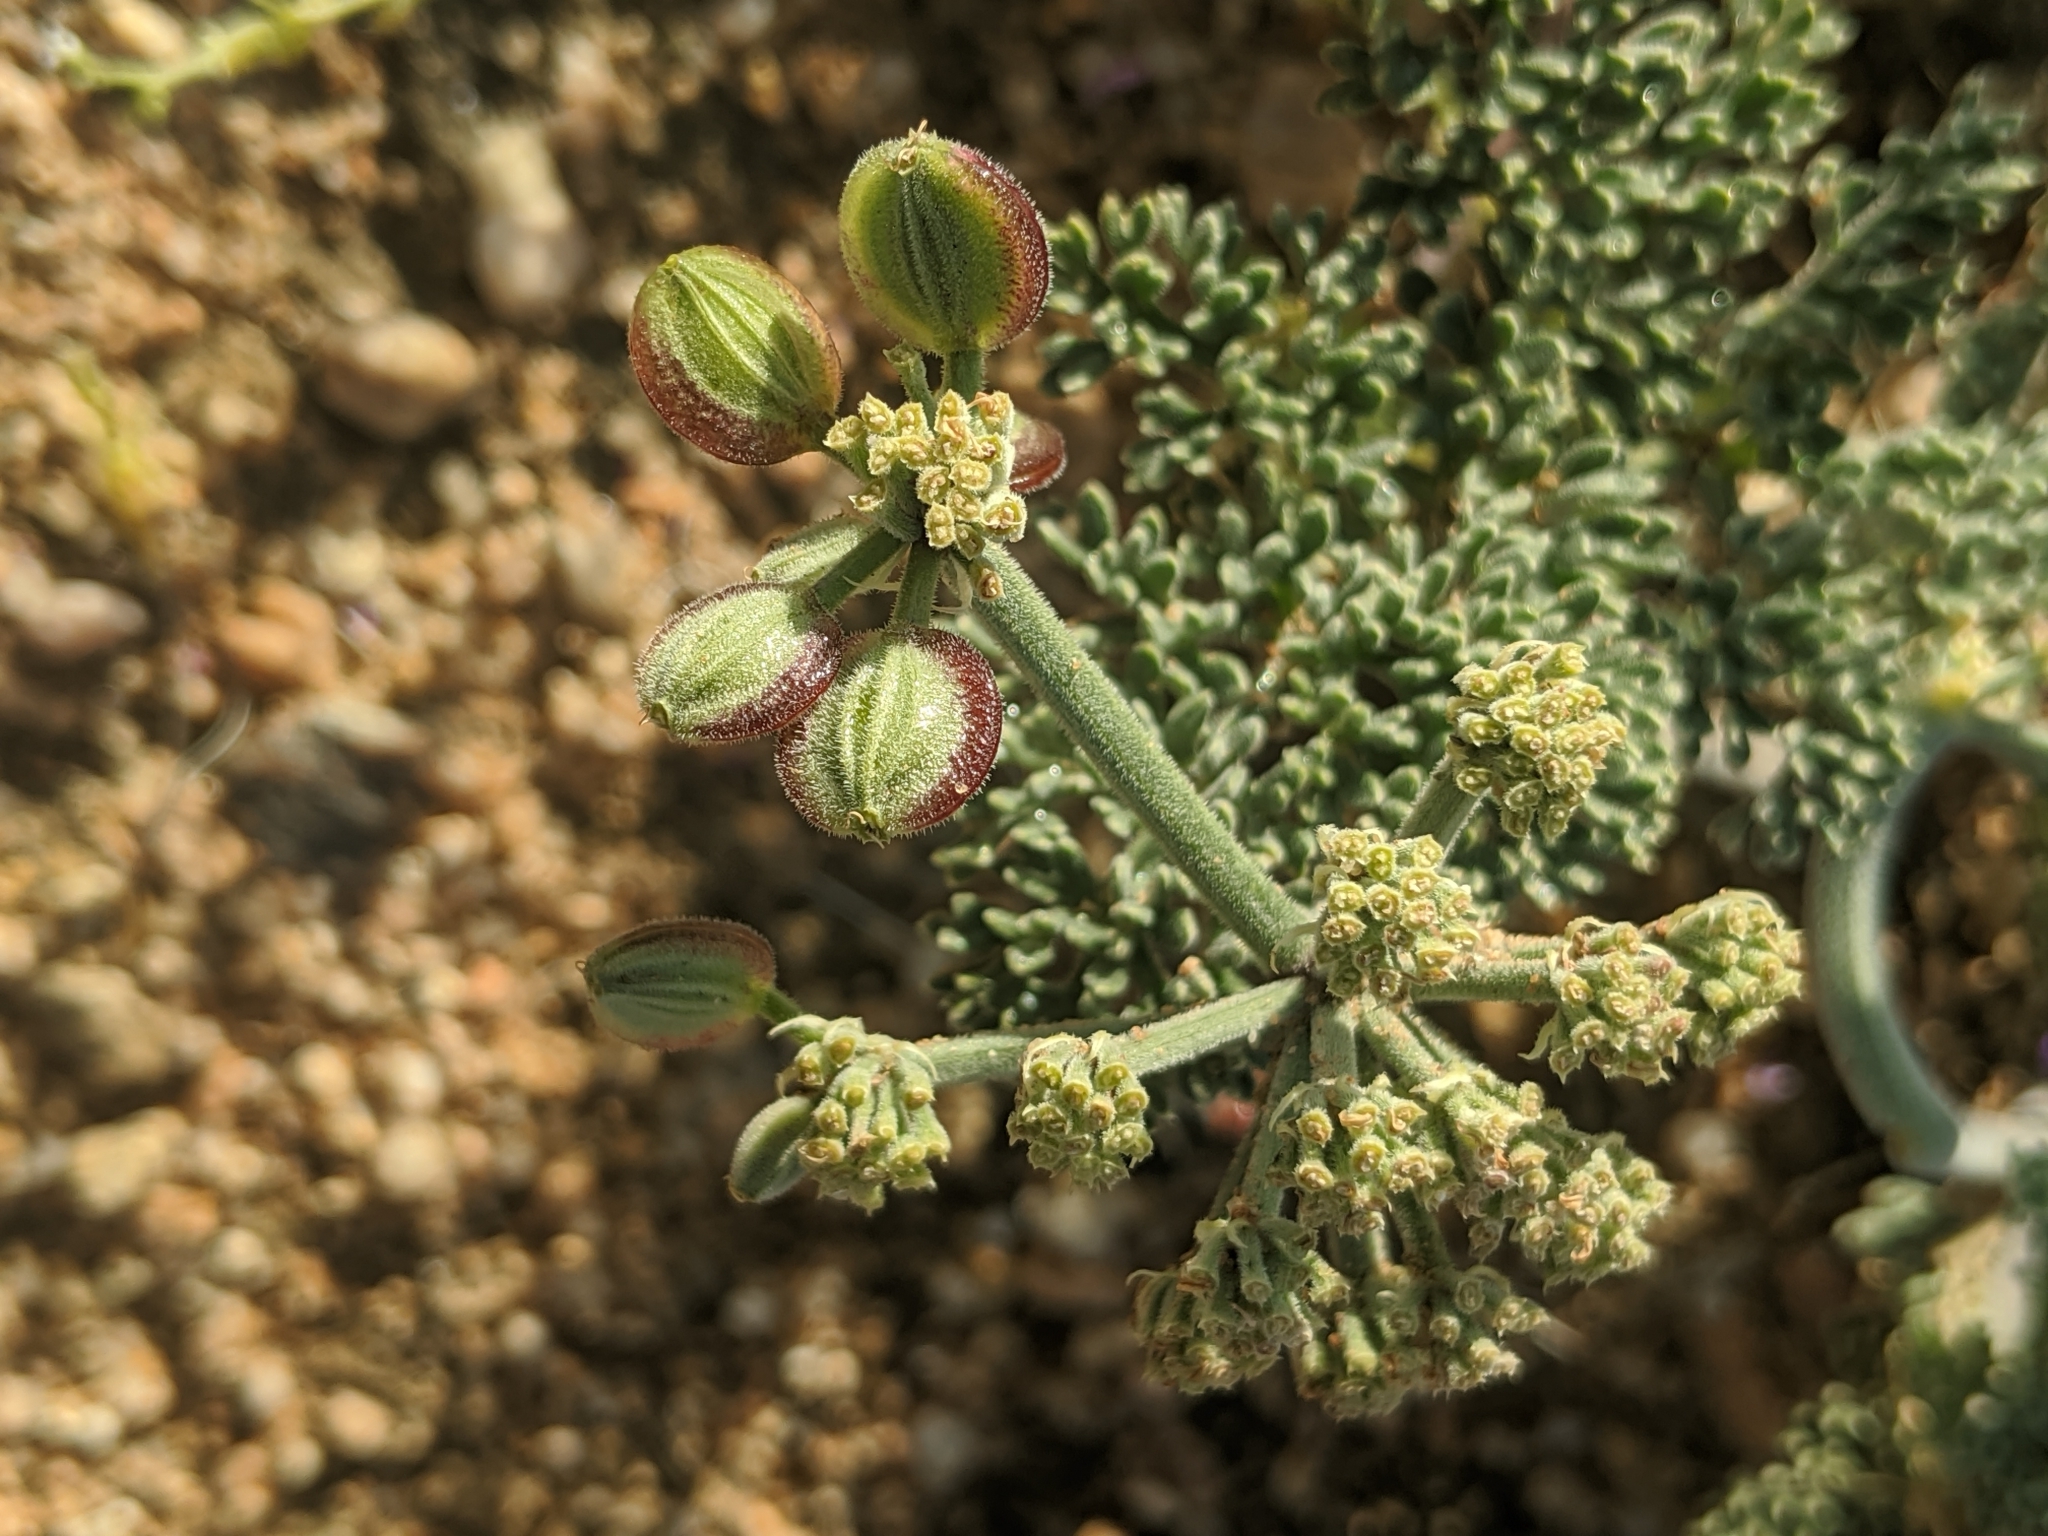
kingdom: Plantae
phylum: Tracheophyta
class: Magnoliopsida
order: Apiales
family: Apiaceae
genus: Lomatium
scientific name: Lomatium mohavense
